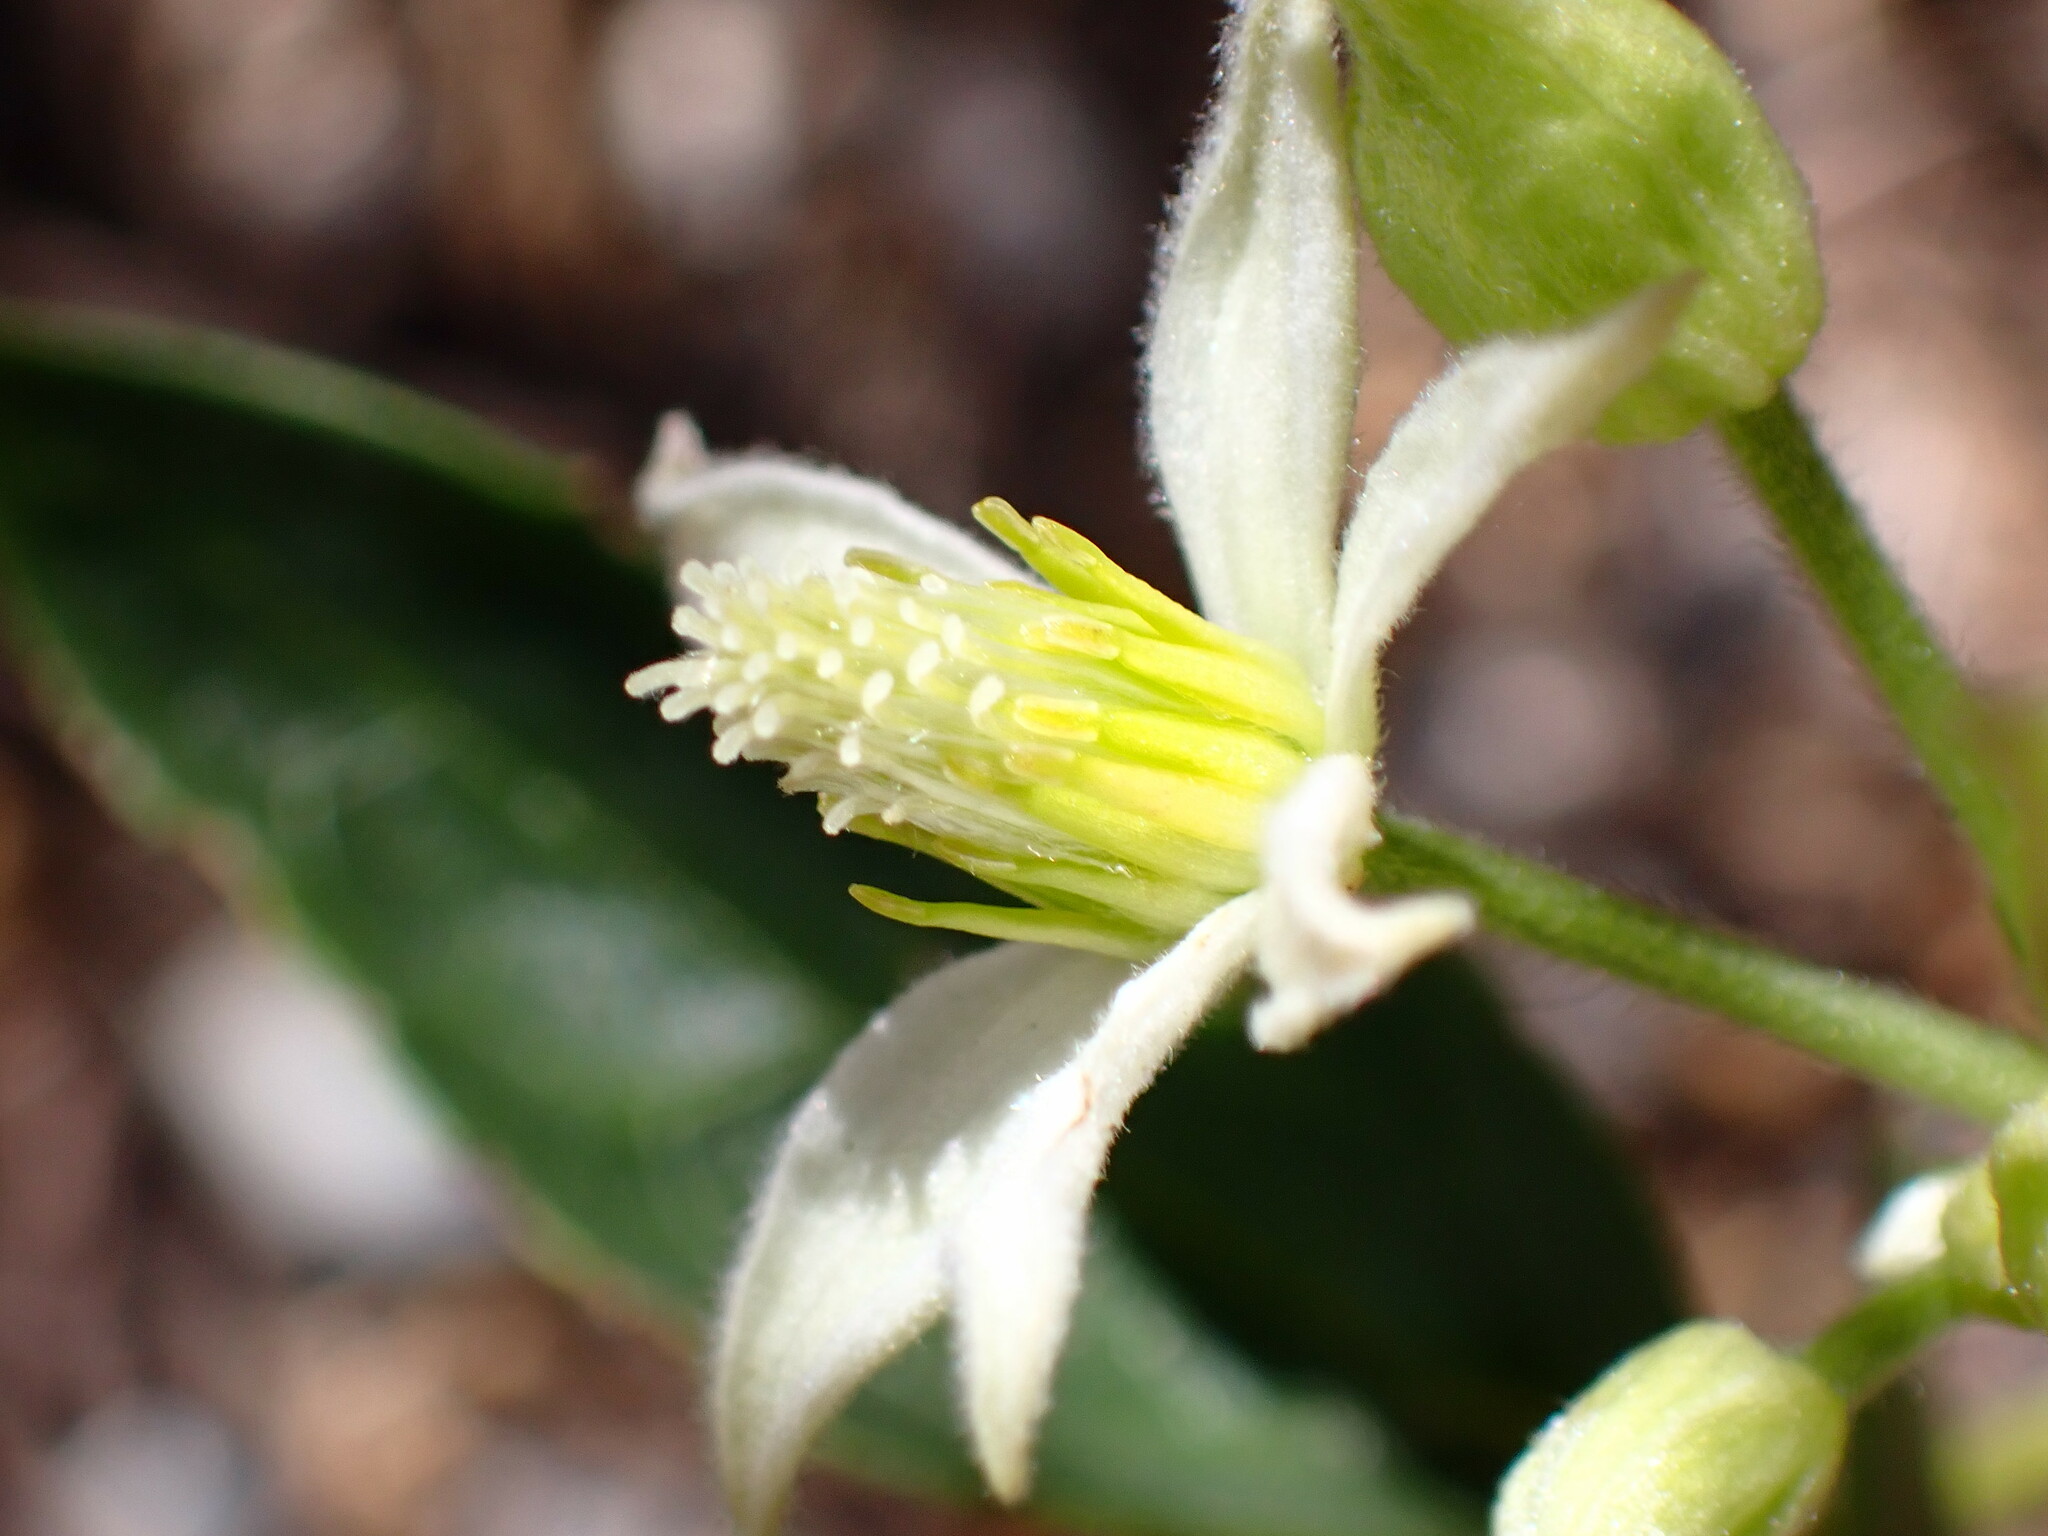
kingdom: Plantae
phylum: Tracheophyta
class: Magnoliopsida
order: Ranunculales
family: Ranunculaceae
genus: Clematis
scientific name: Clematis ligusticifolia
